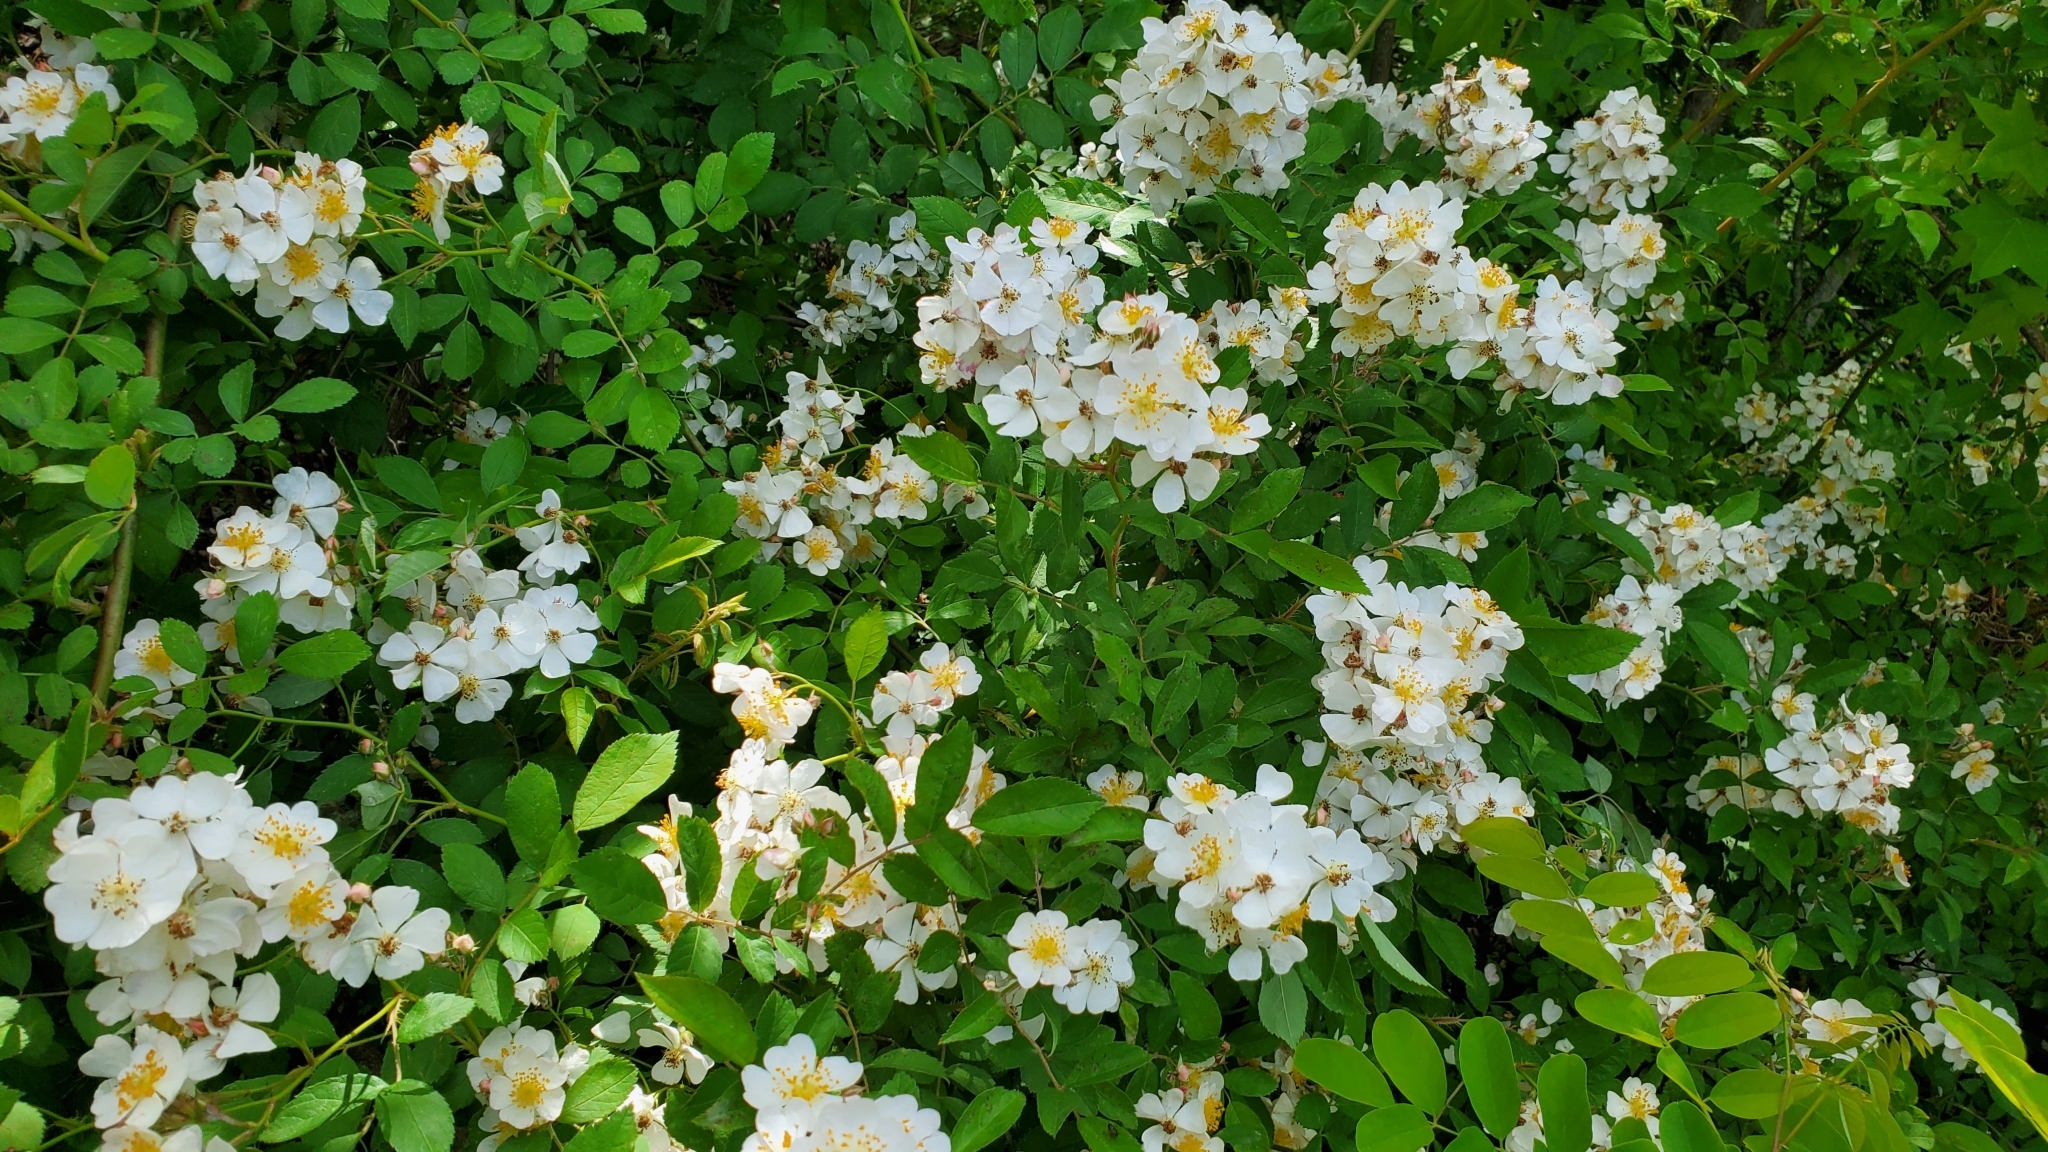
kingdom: Plantae
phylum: Tracheophyta
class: Magnoliopsida
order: Rosales
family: Rosaceae
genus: Rosa
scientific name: Rosa multiflora
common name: Multiflora rose
